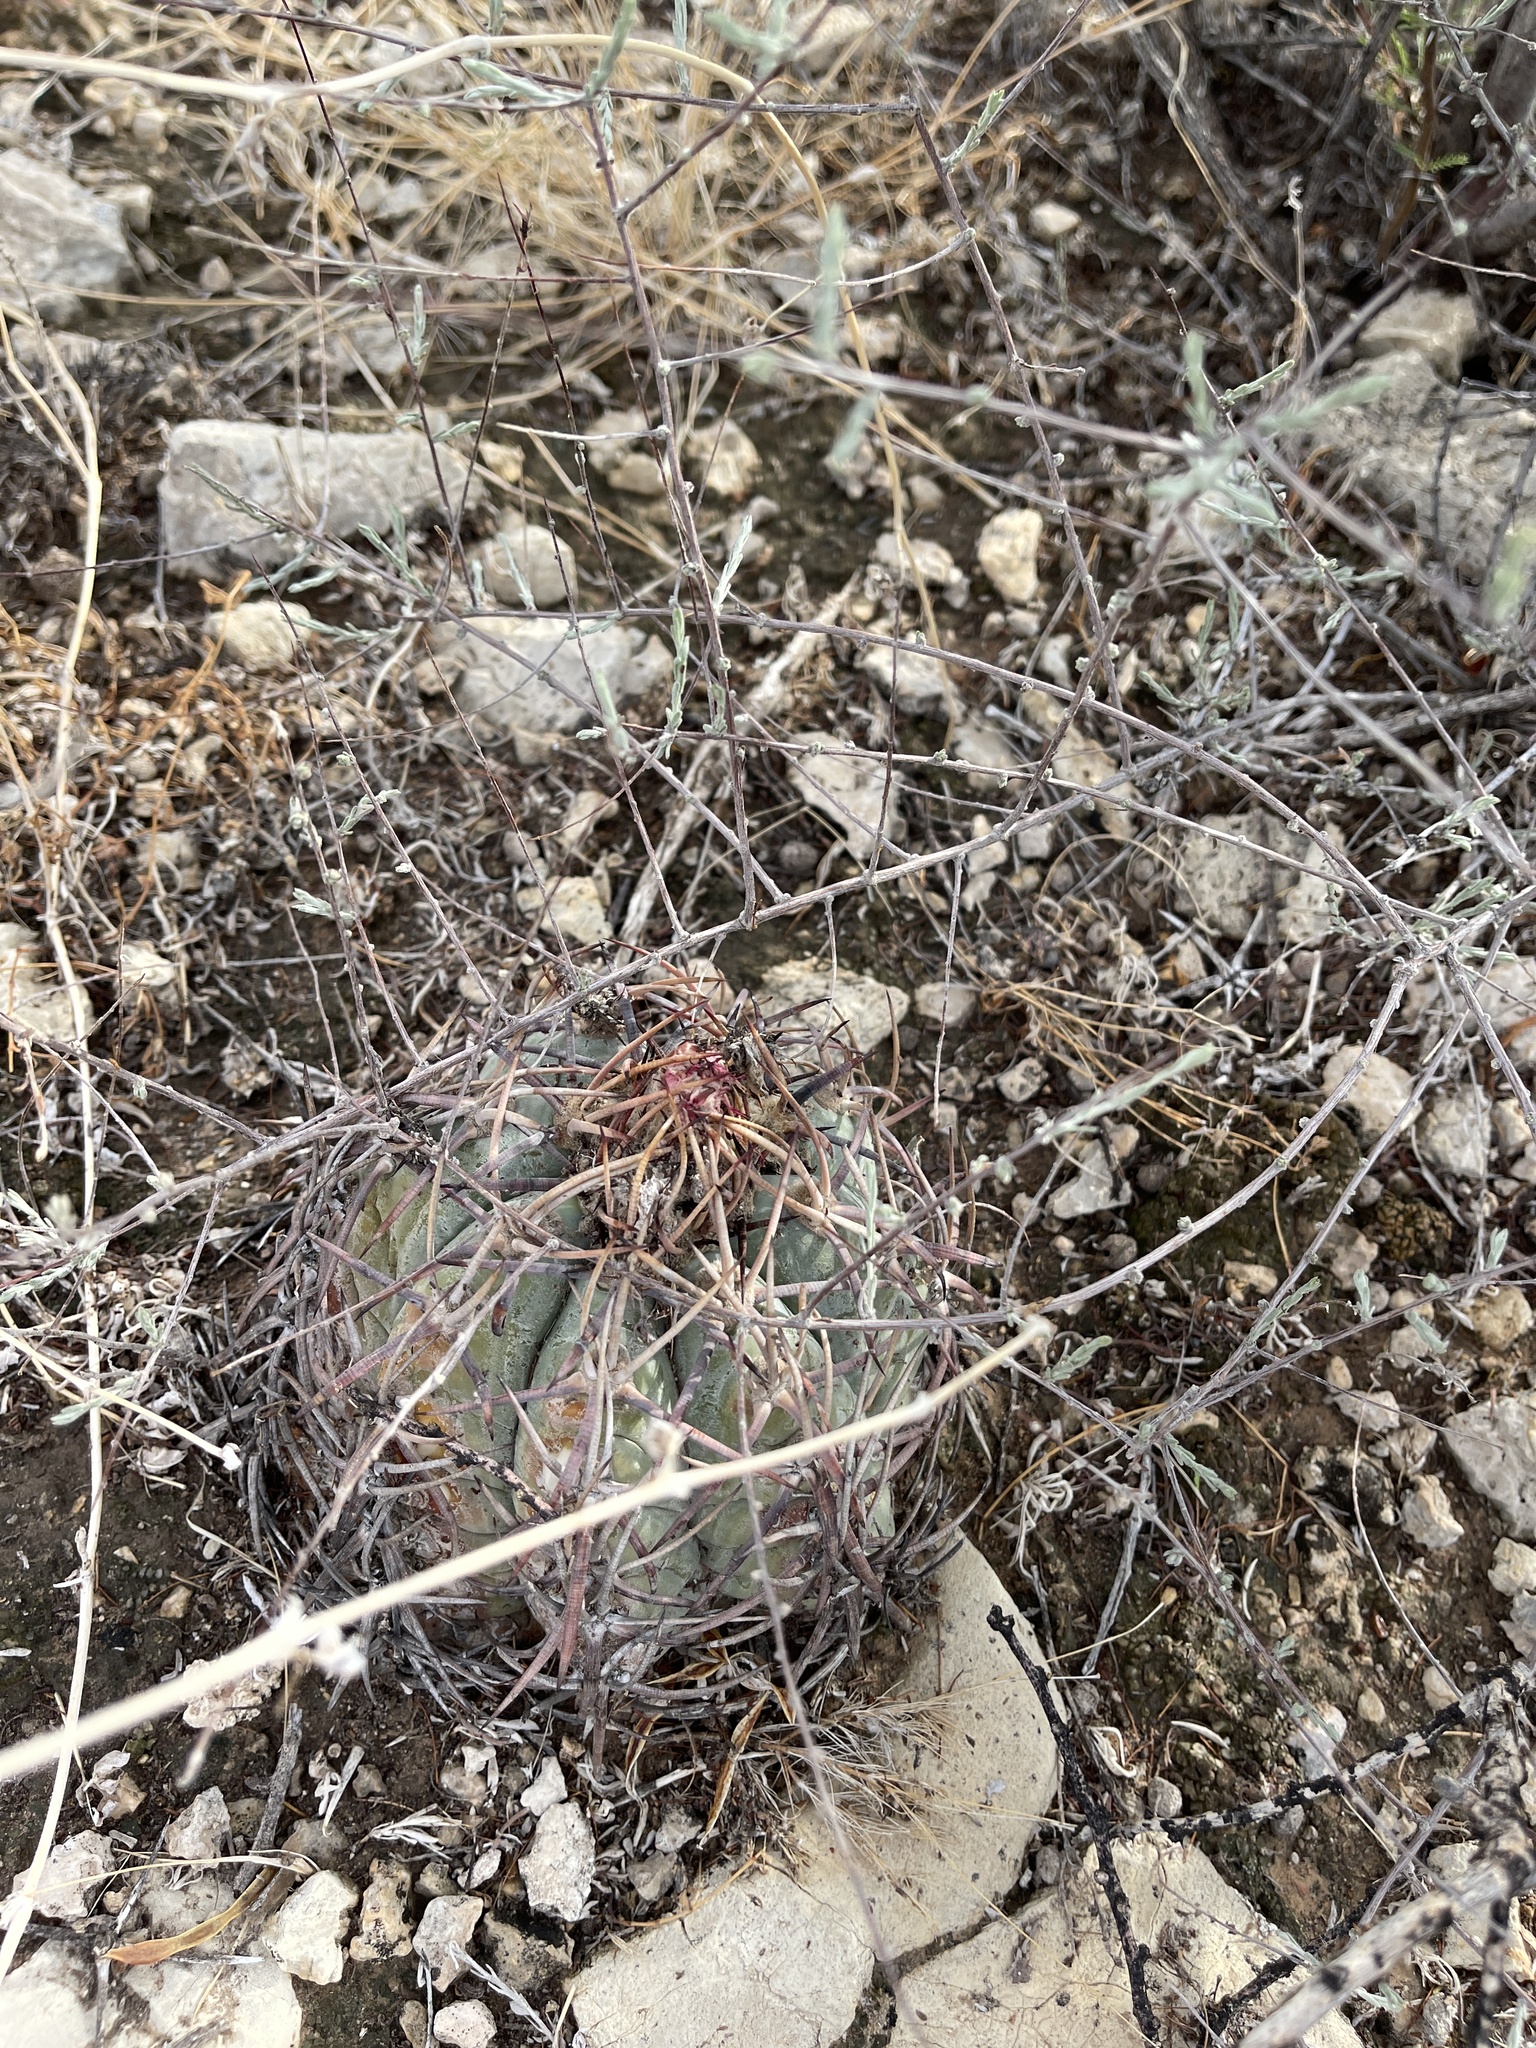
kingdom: Plantae
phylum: Tracheophyta
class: Magnoliopsida
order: Caryophyllales
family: Cactaceae
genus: Echinocactus
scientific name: Echinocactus horizonthalonius
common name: Devilshead
